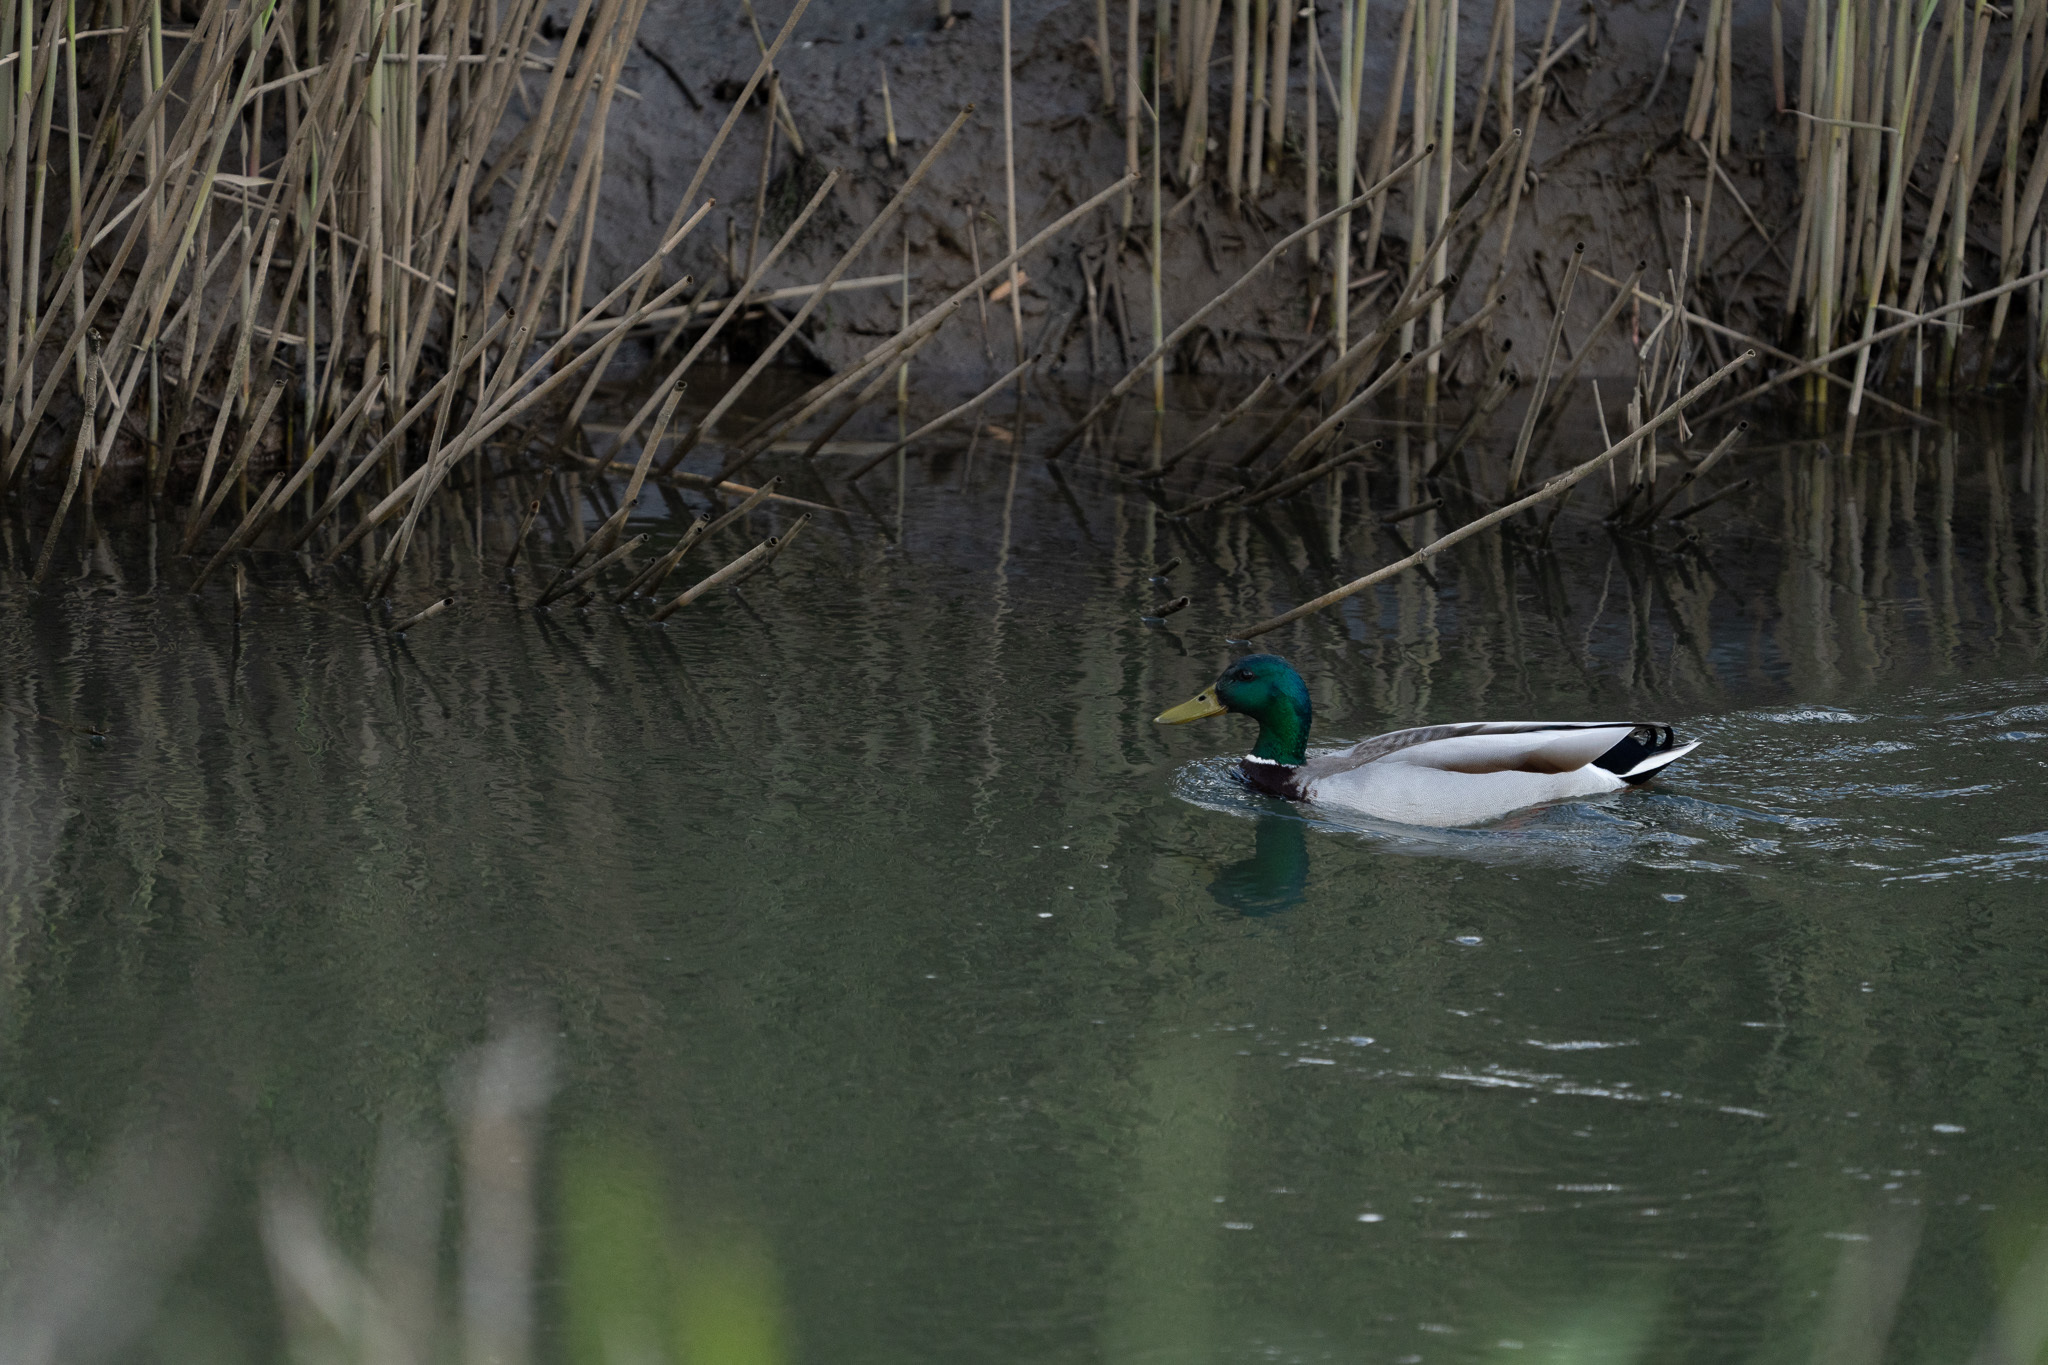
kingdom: Animalia
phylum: Chordata
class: Aves
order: Anseriformes
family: Anatidae
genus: Anas
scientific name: Anas platyrhynchos
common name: Mallard
